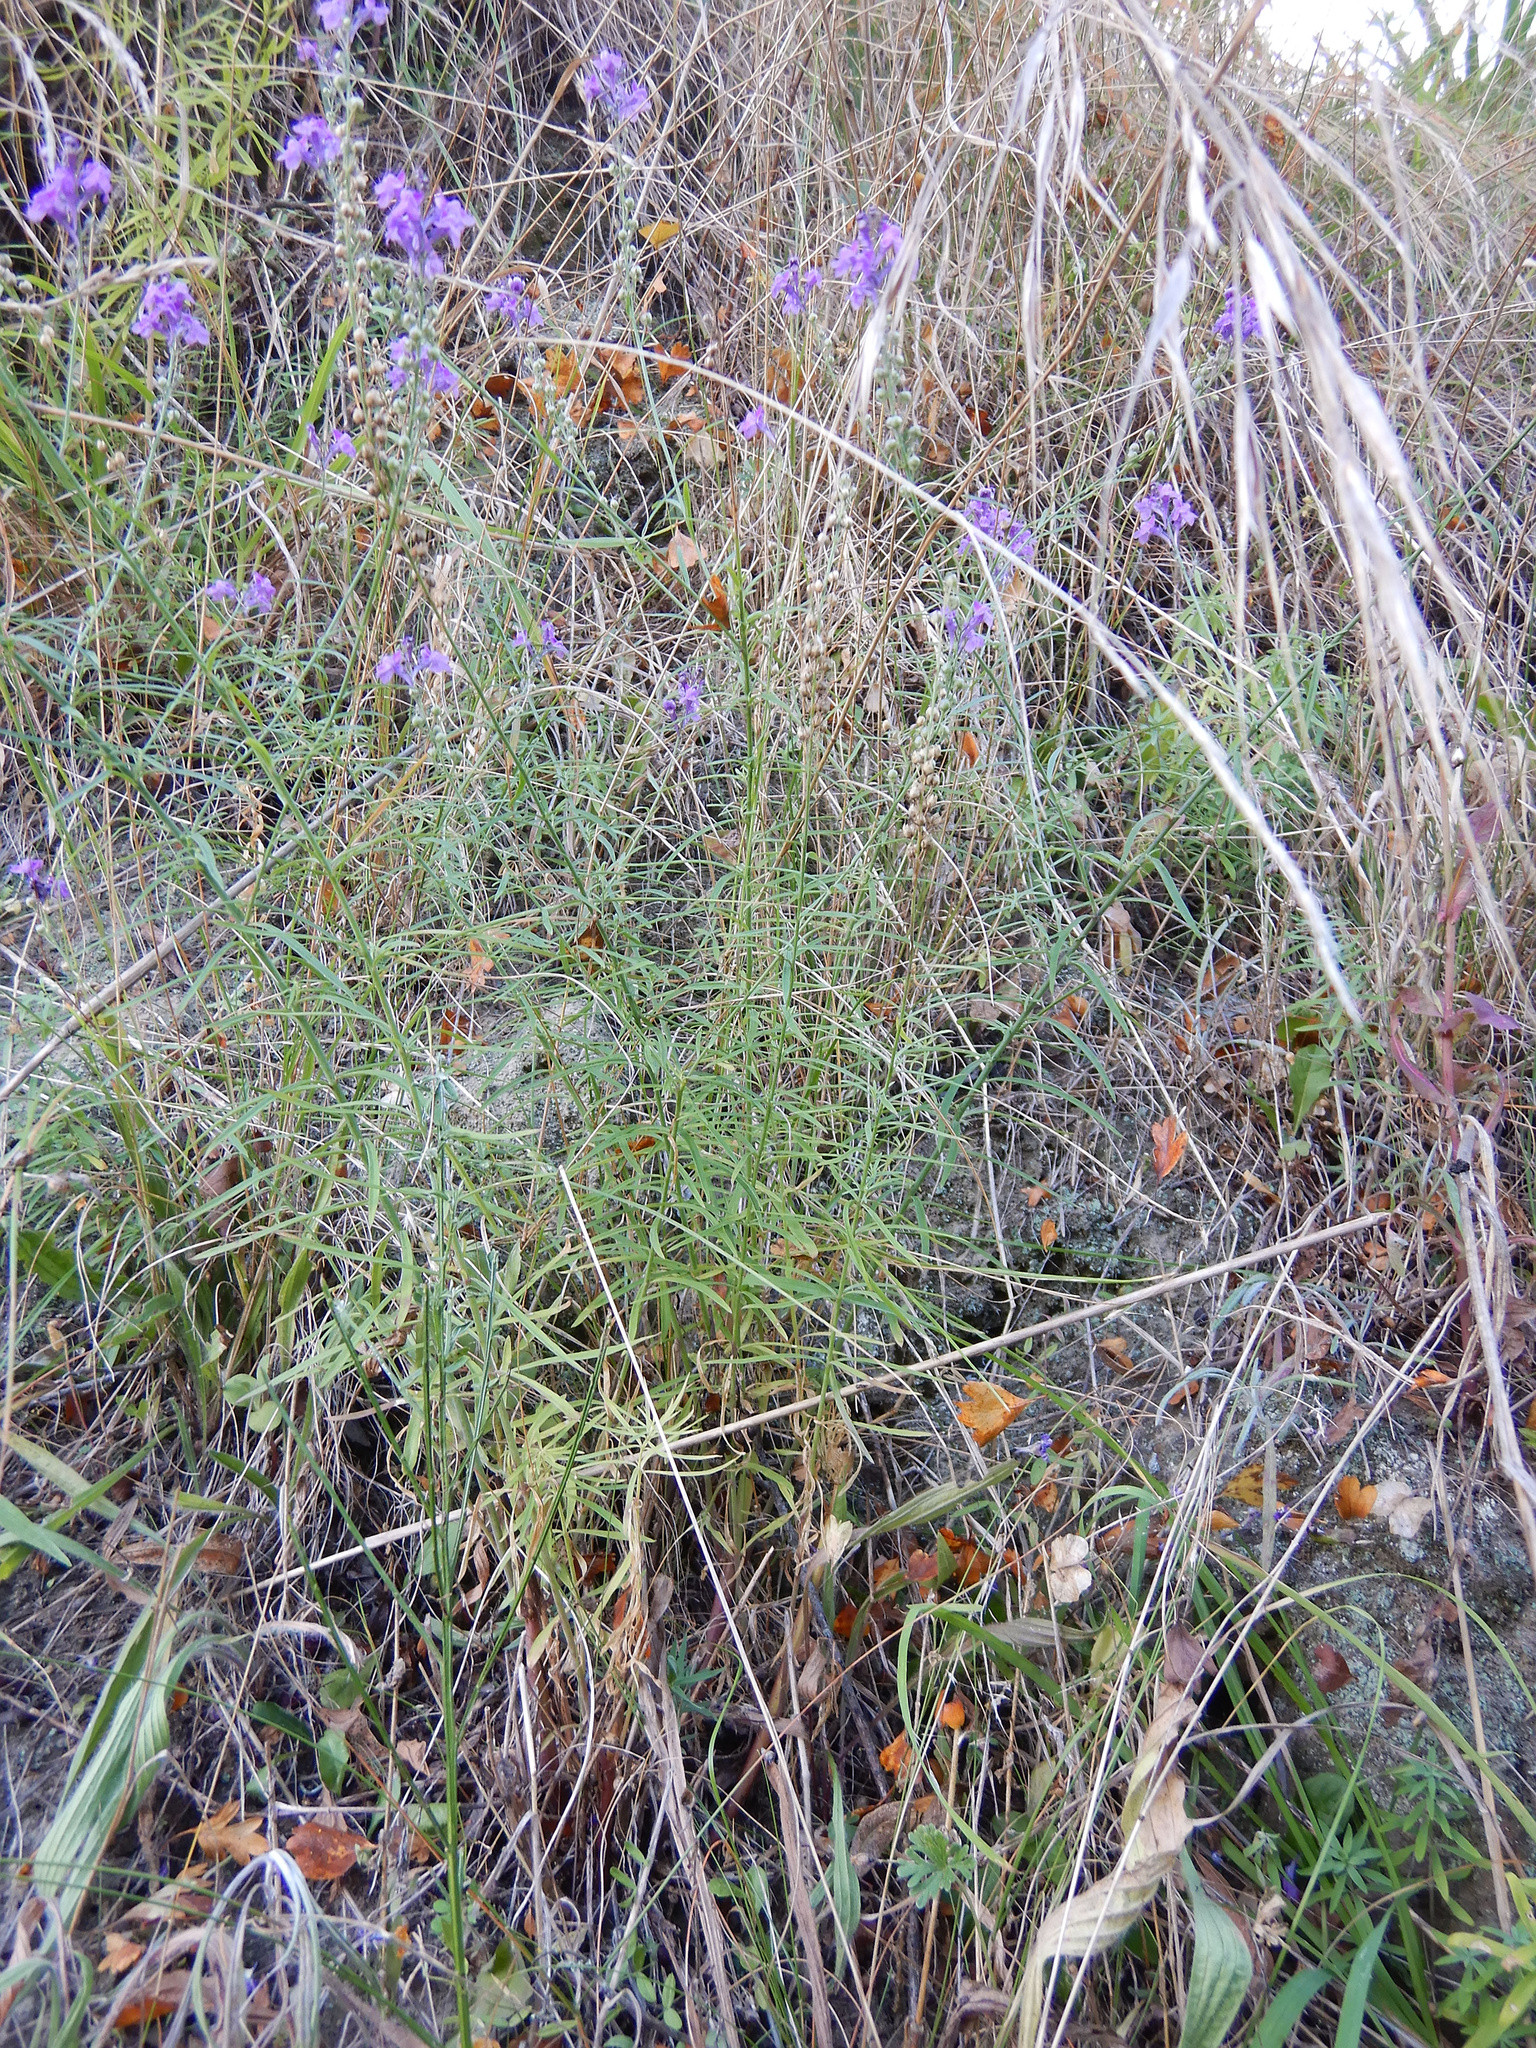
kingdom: Plantae
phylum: Tracheophyta
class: Magnoliopsida
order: Lamiales
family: Plantaginaceae
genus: Linaria
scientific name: Linaria purpurea
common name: Purple toadflax
